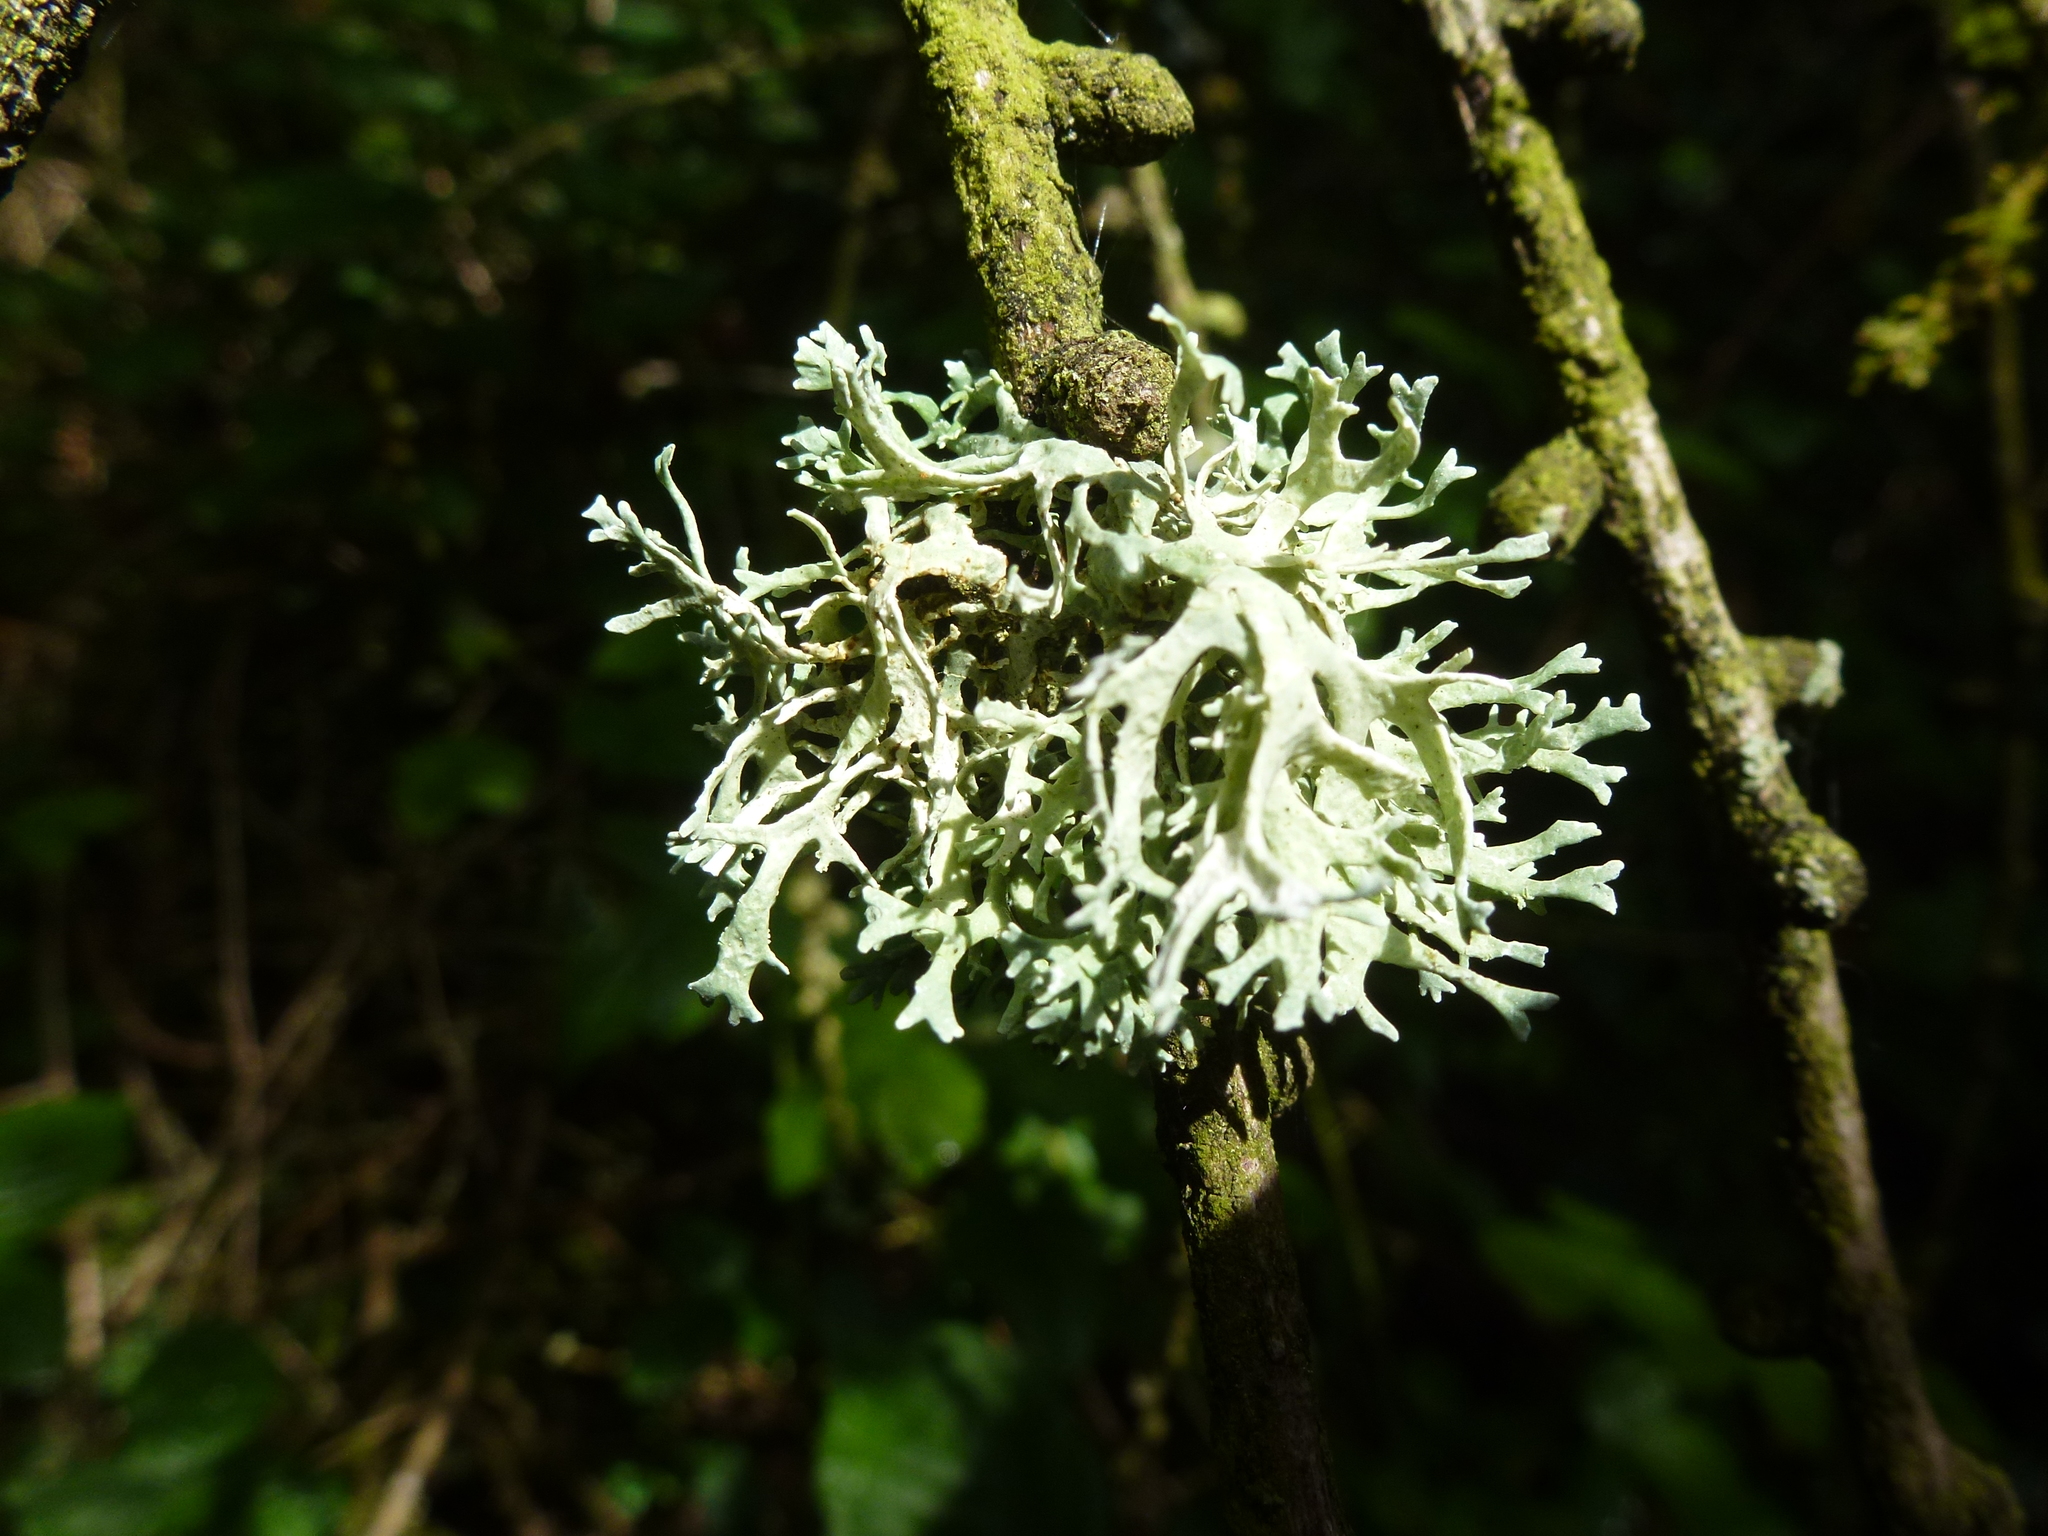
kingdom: Fungi
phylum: Ascomycota
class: Lecanoromycetes
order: Lecanorales
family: Parmeliaceae
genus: Evernia
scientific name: Evernia prunastri
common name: Oak moss
